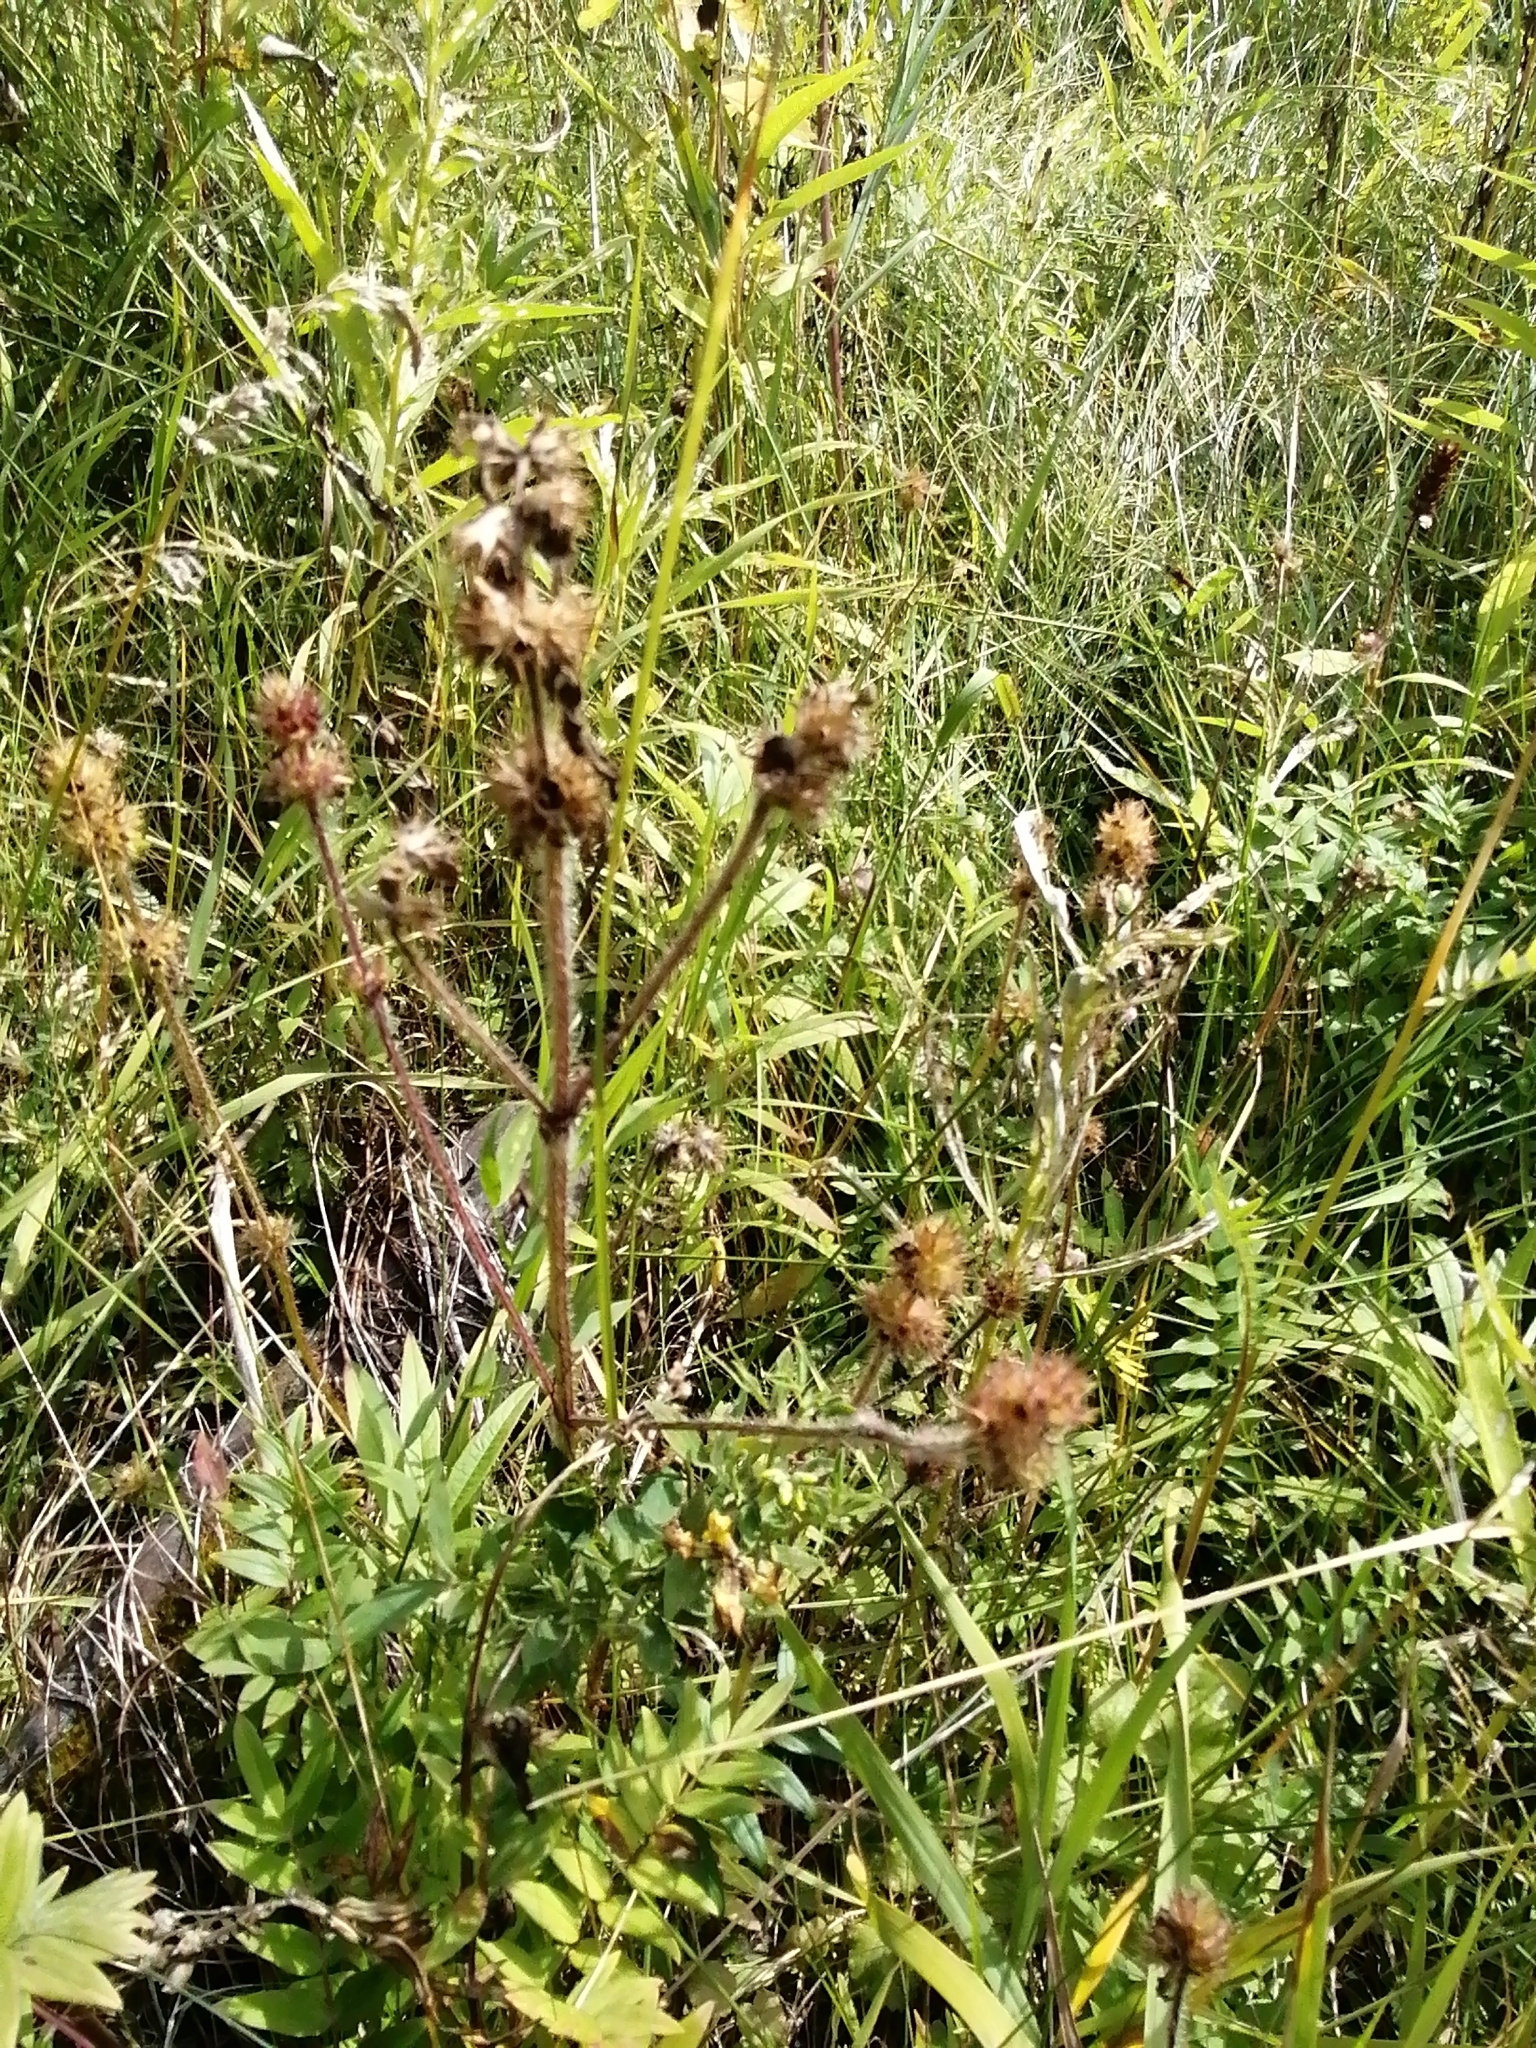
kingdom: Plantae
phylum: Tracheophyta
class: Magnoliopsida
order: Lamiales
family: Lamiaceae
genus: Galeopsis
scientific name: Galeopsis
